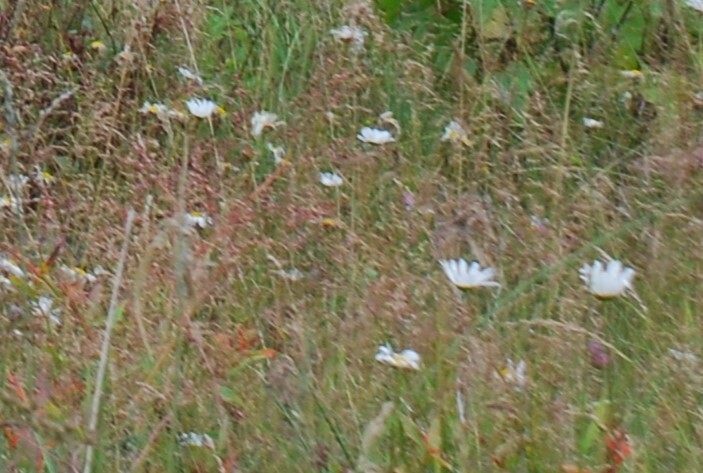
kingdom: Plantae
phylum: Tracheophyta
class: Magnoliopsida
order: Asterales
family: Asteraceae
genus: Leucanthemum
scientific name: Leucanthemum ircutianum
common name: Daisy
